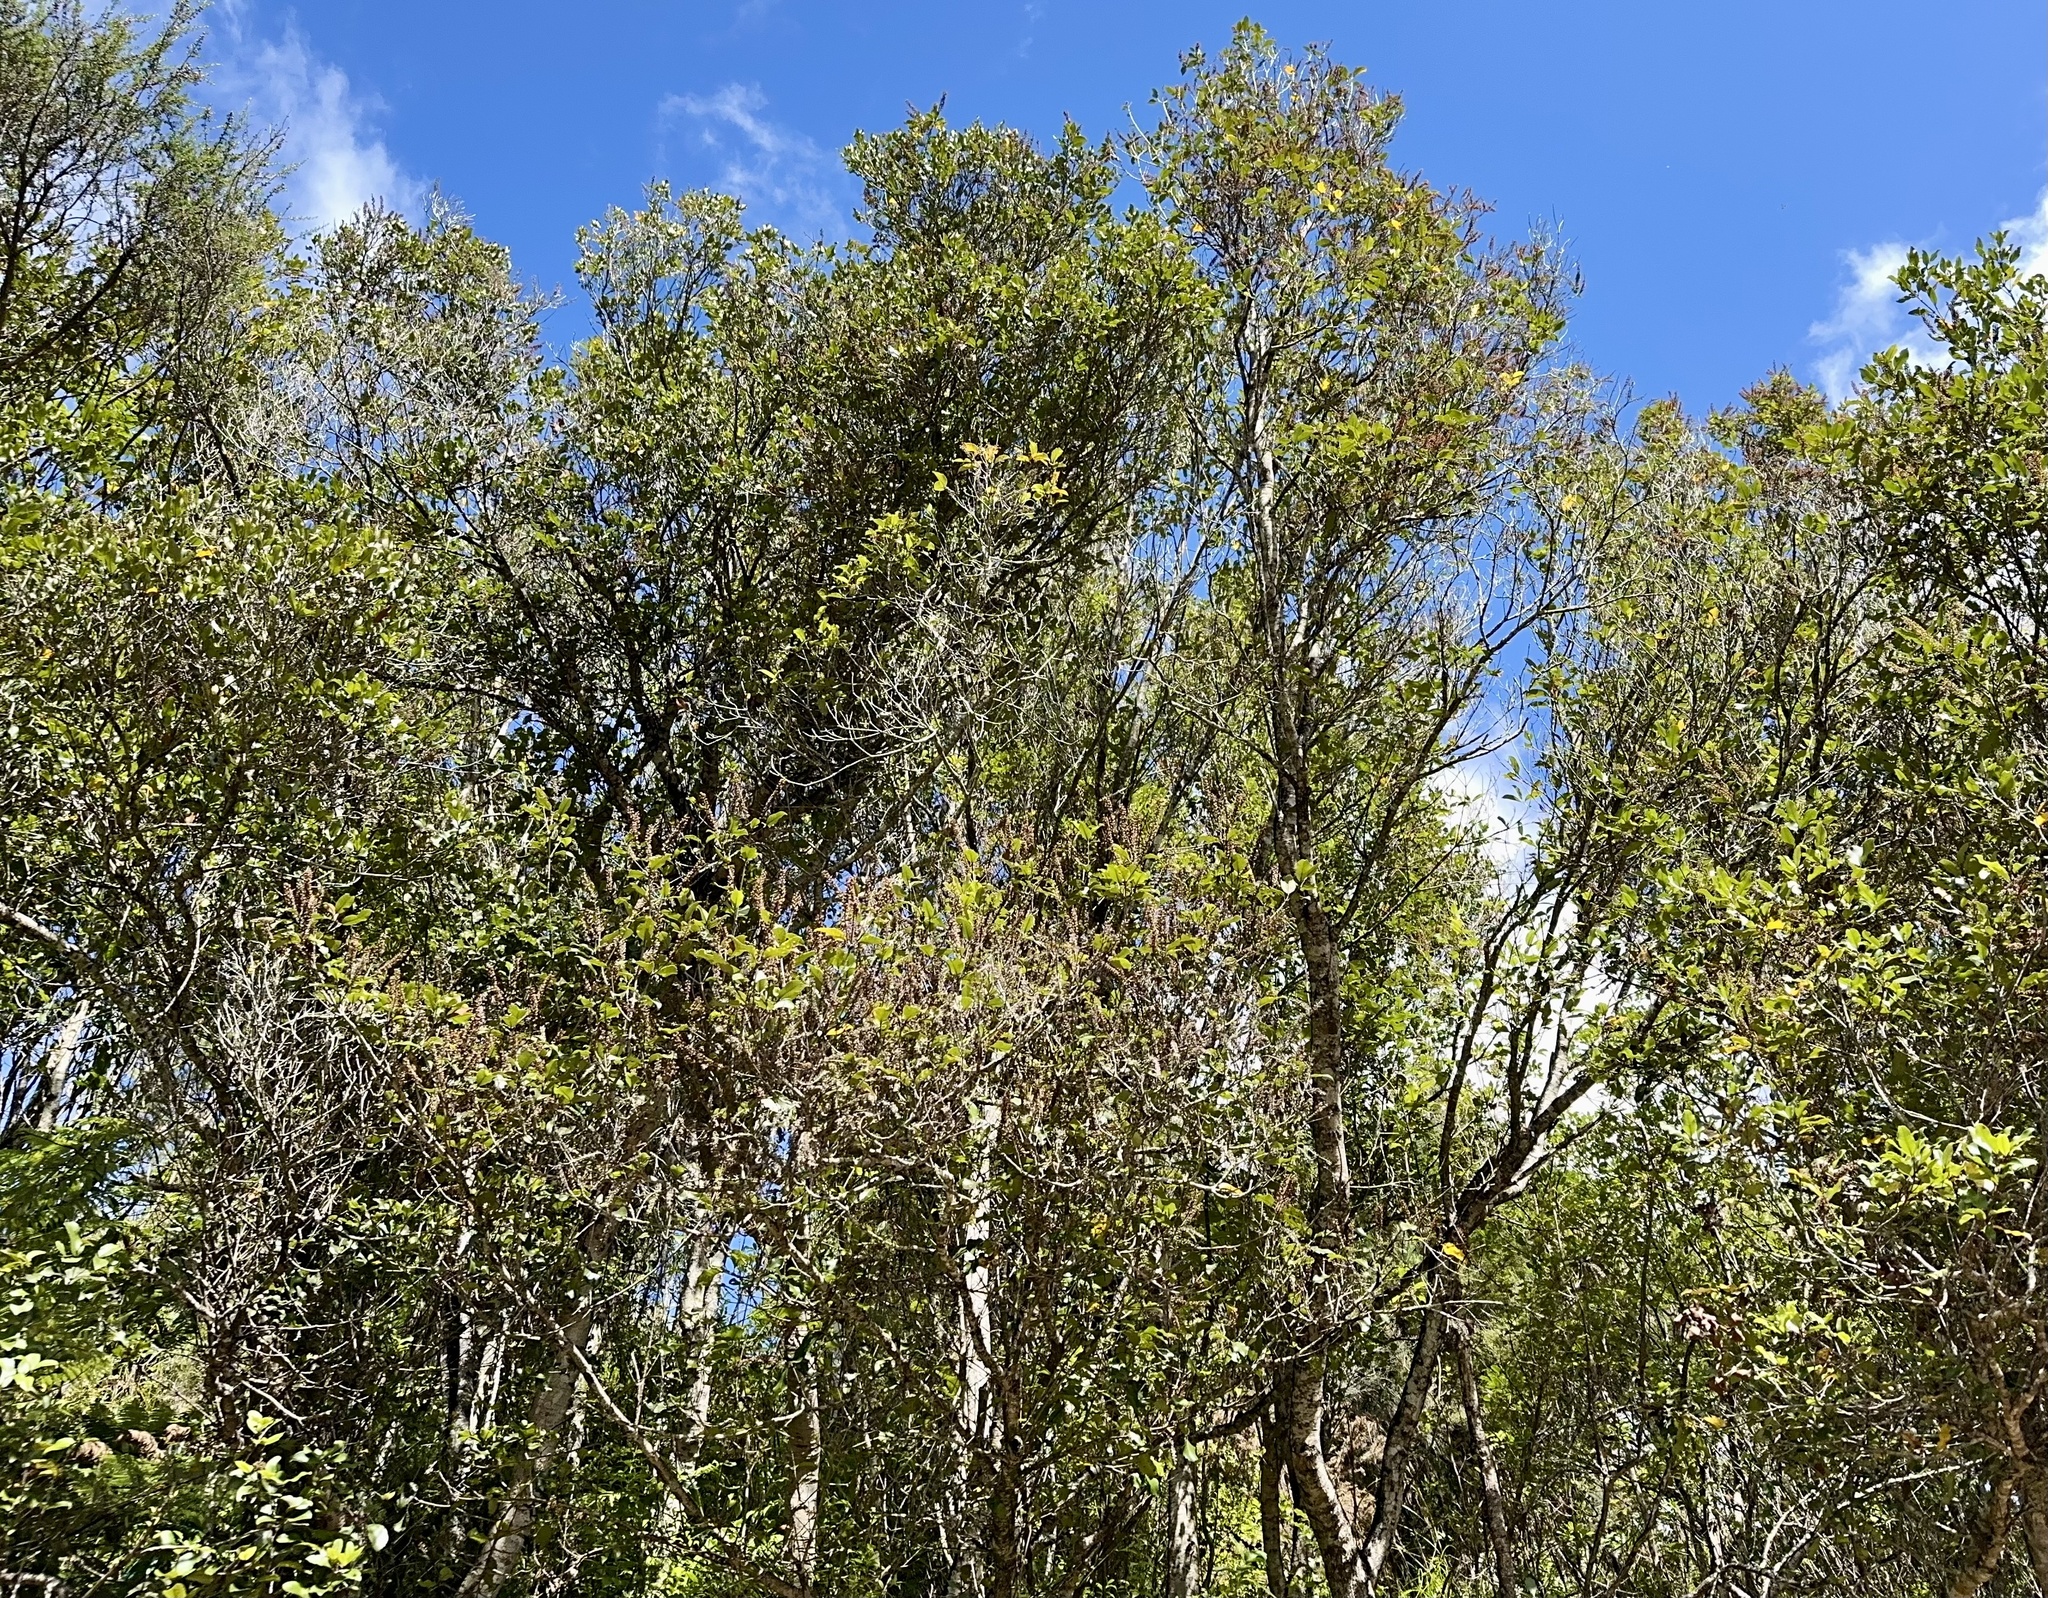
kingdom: Plantae
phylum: Tracheophyta
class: Magnoliopsida
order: Oxalidales
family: Cunoniaceae
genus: Pterophylla
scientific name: Pterophylla racemosa
